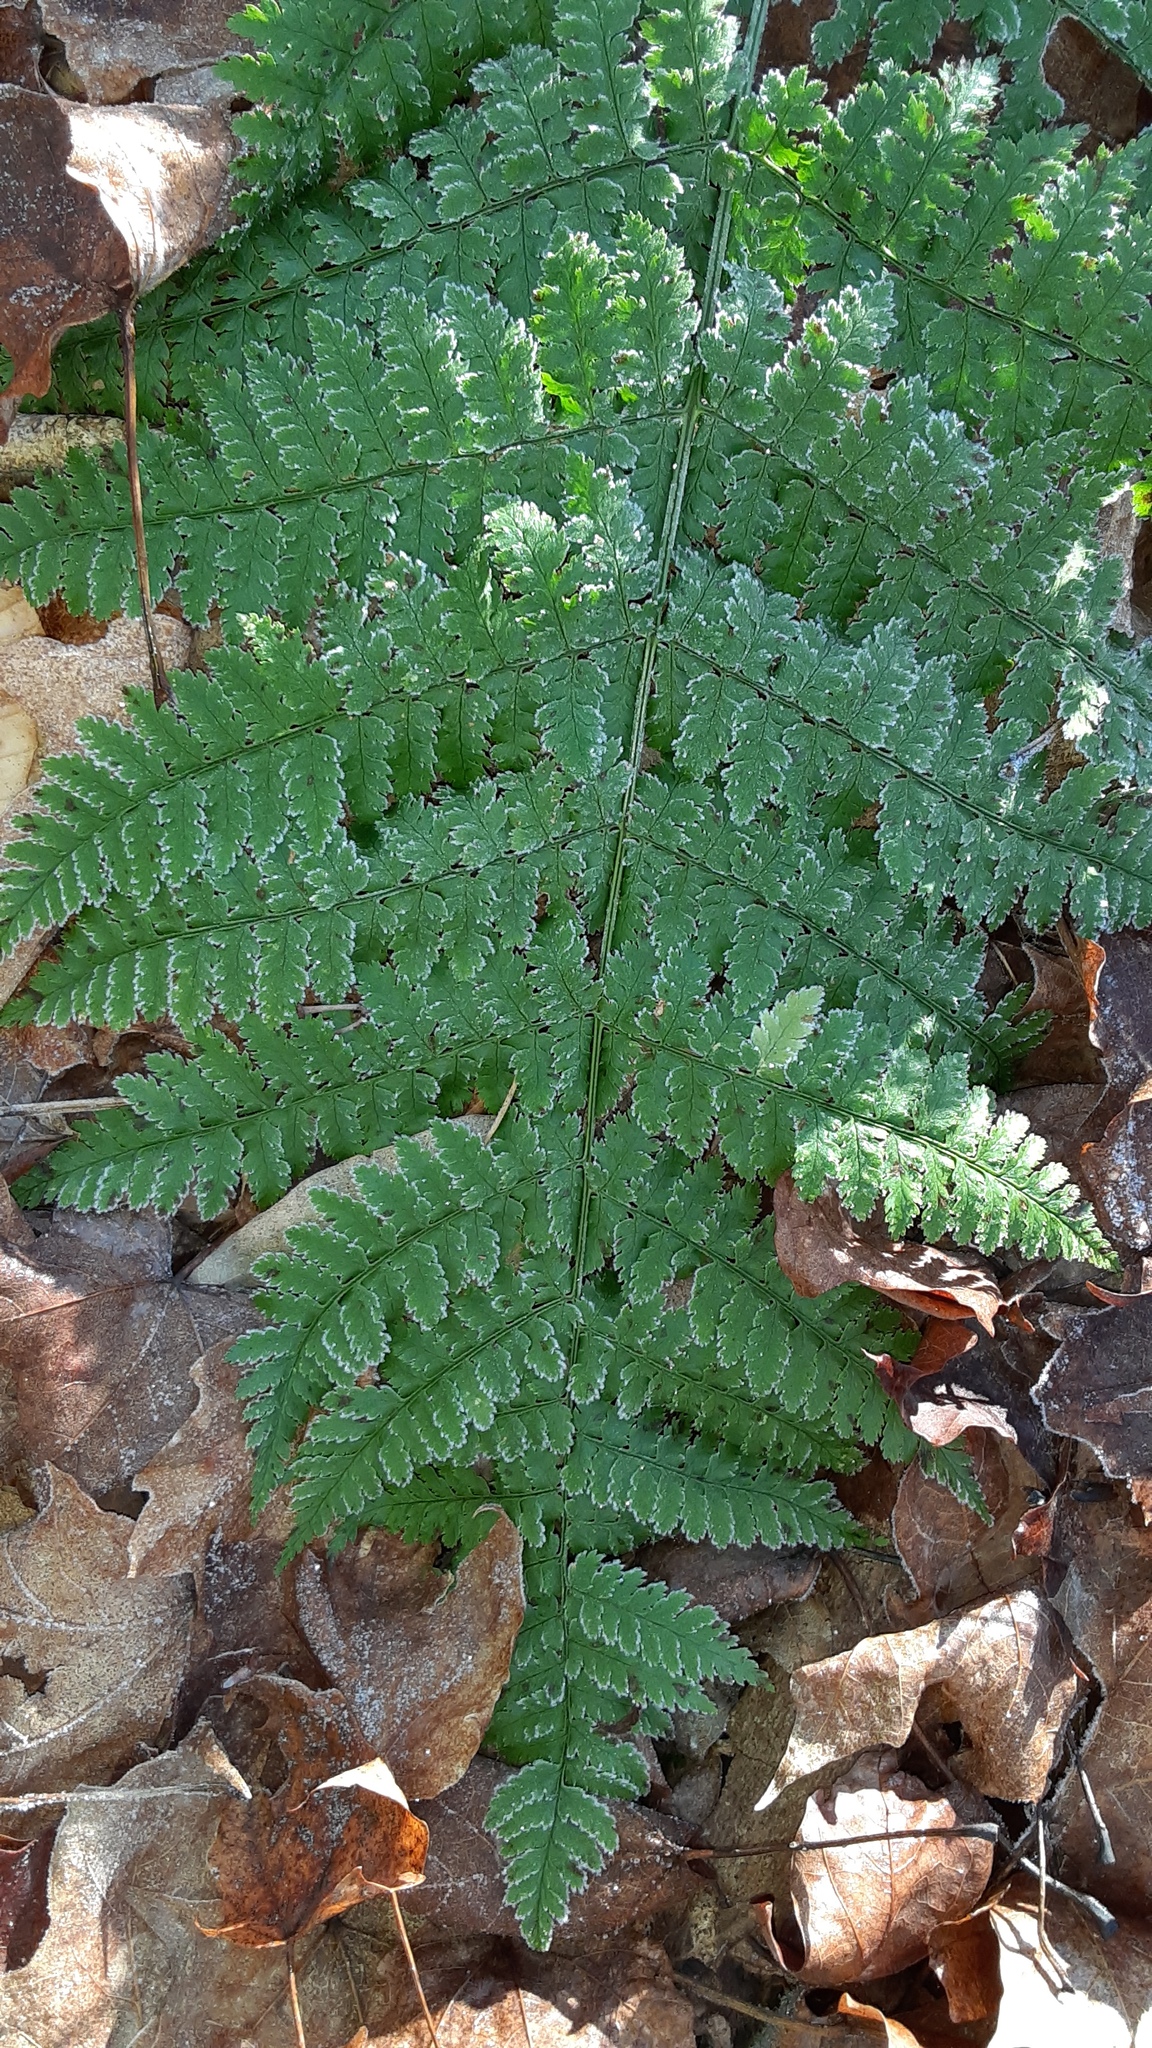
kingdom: Plantae
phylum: Tracheophyta
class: Polypodiopsida
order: Polypodiales
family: Dryopteridaceae
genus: Dryopteris
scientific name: Dryopteris intermedia
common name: Evergreen wood fern
